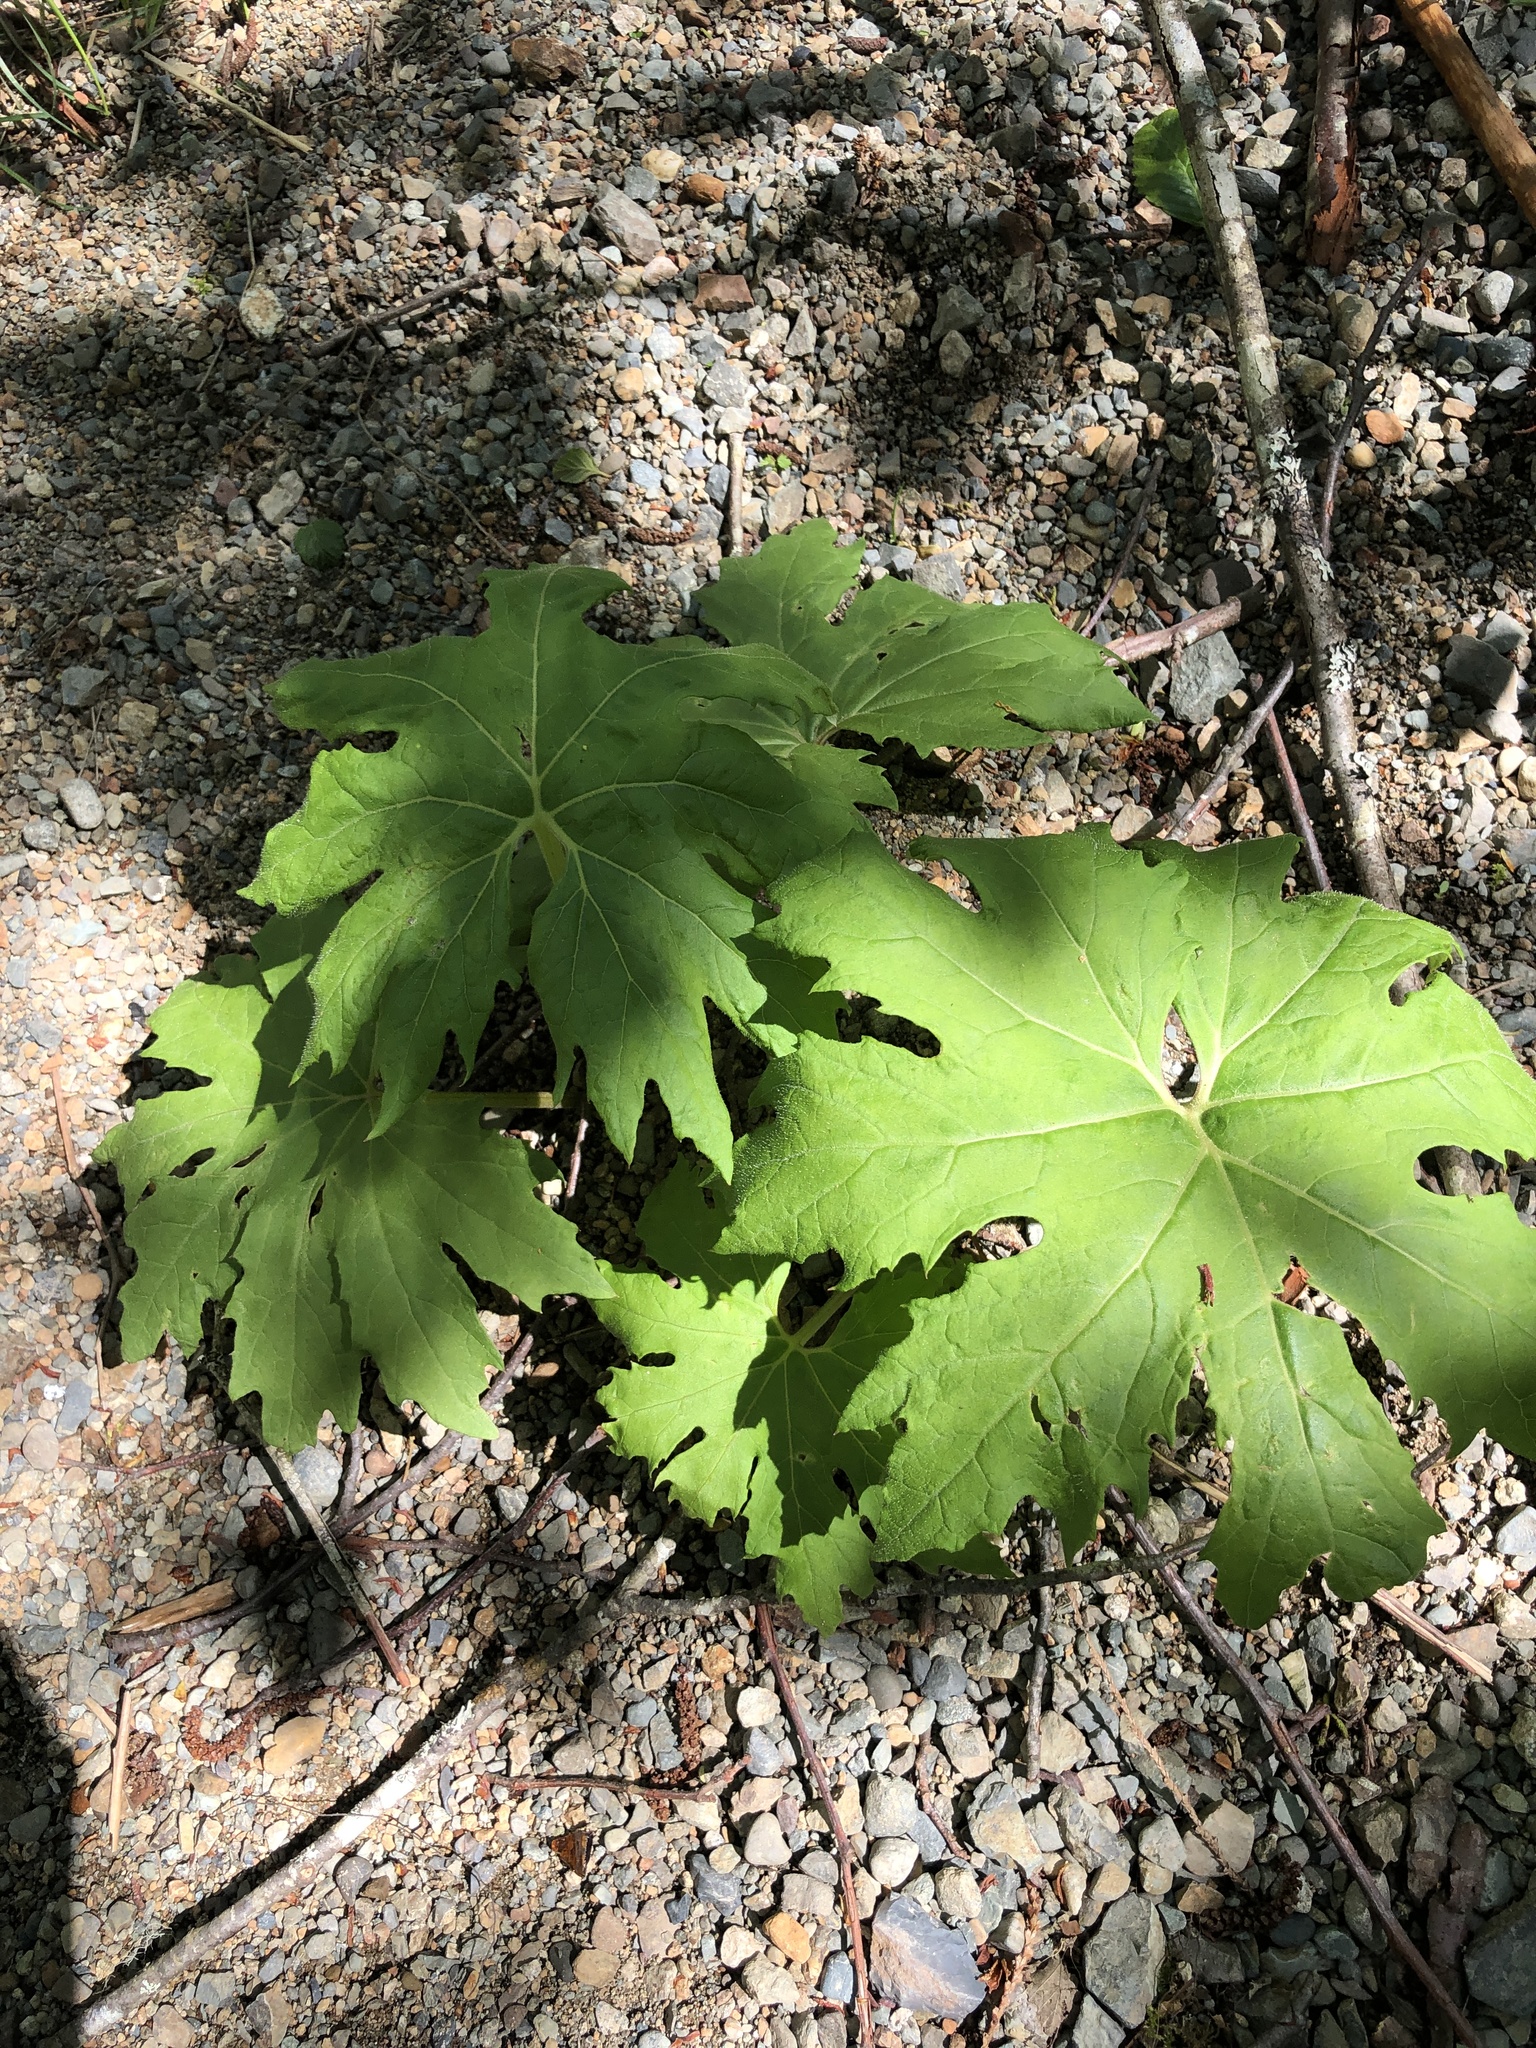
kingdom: Plantae
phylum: Tracheophyta
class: Magnoliopsida
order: Asterales
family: Asteraceae
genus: Petasites
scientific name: Petasites frigidus
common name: Arctic butterbur
